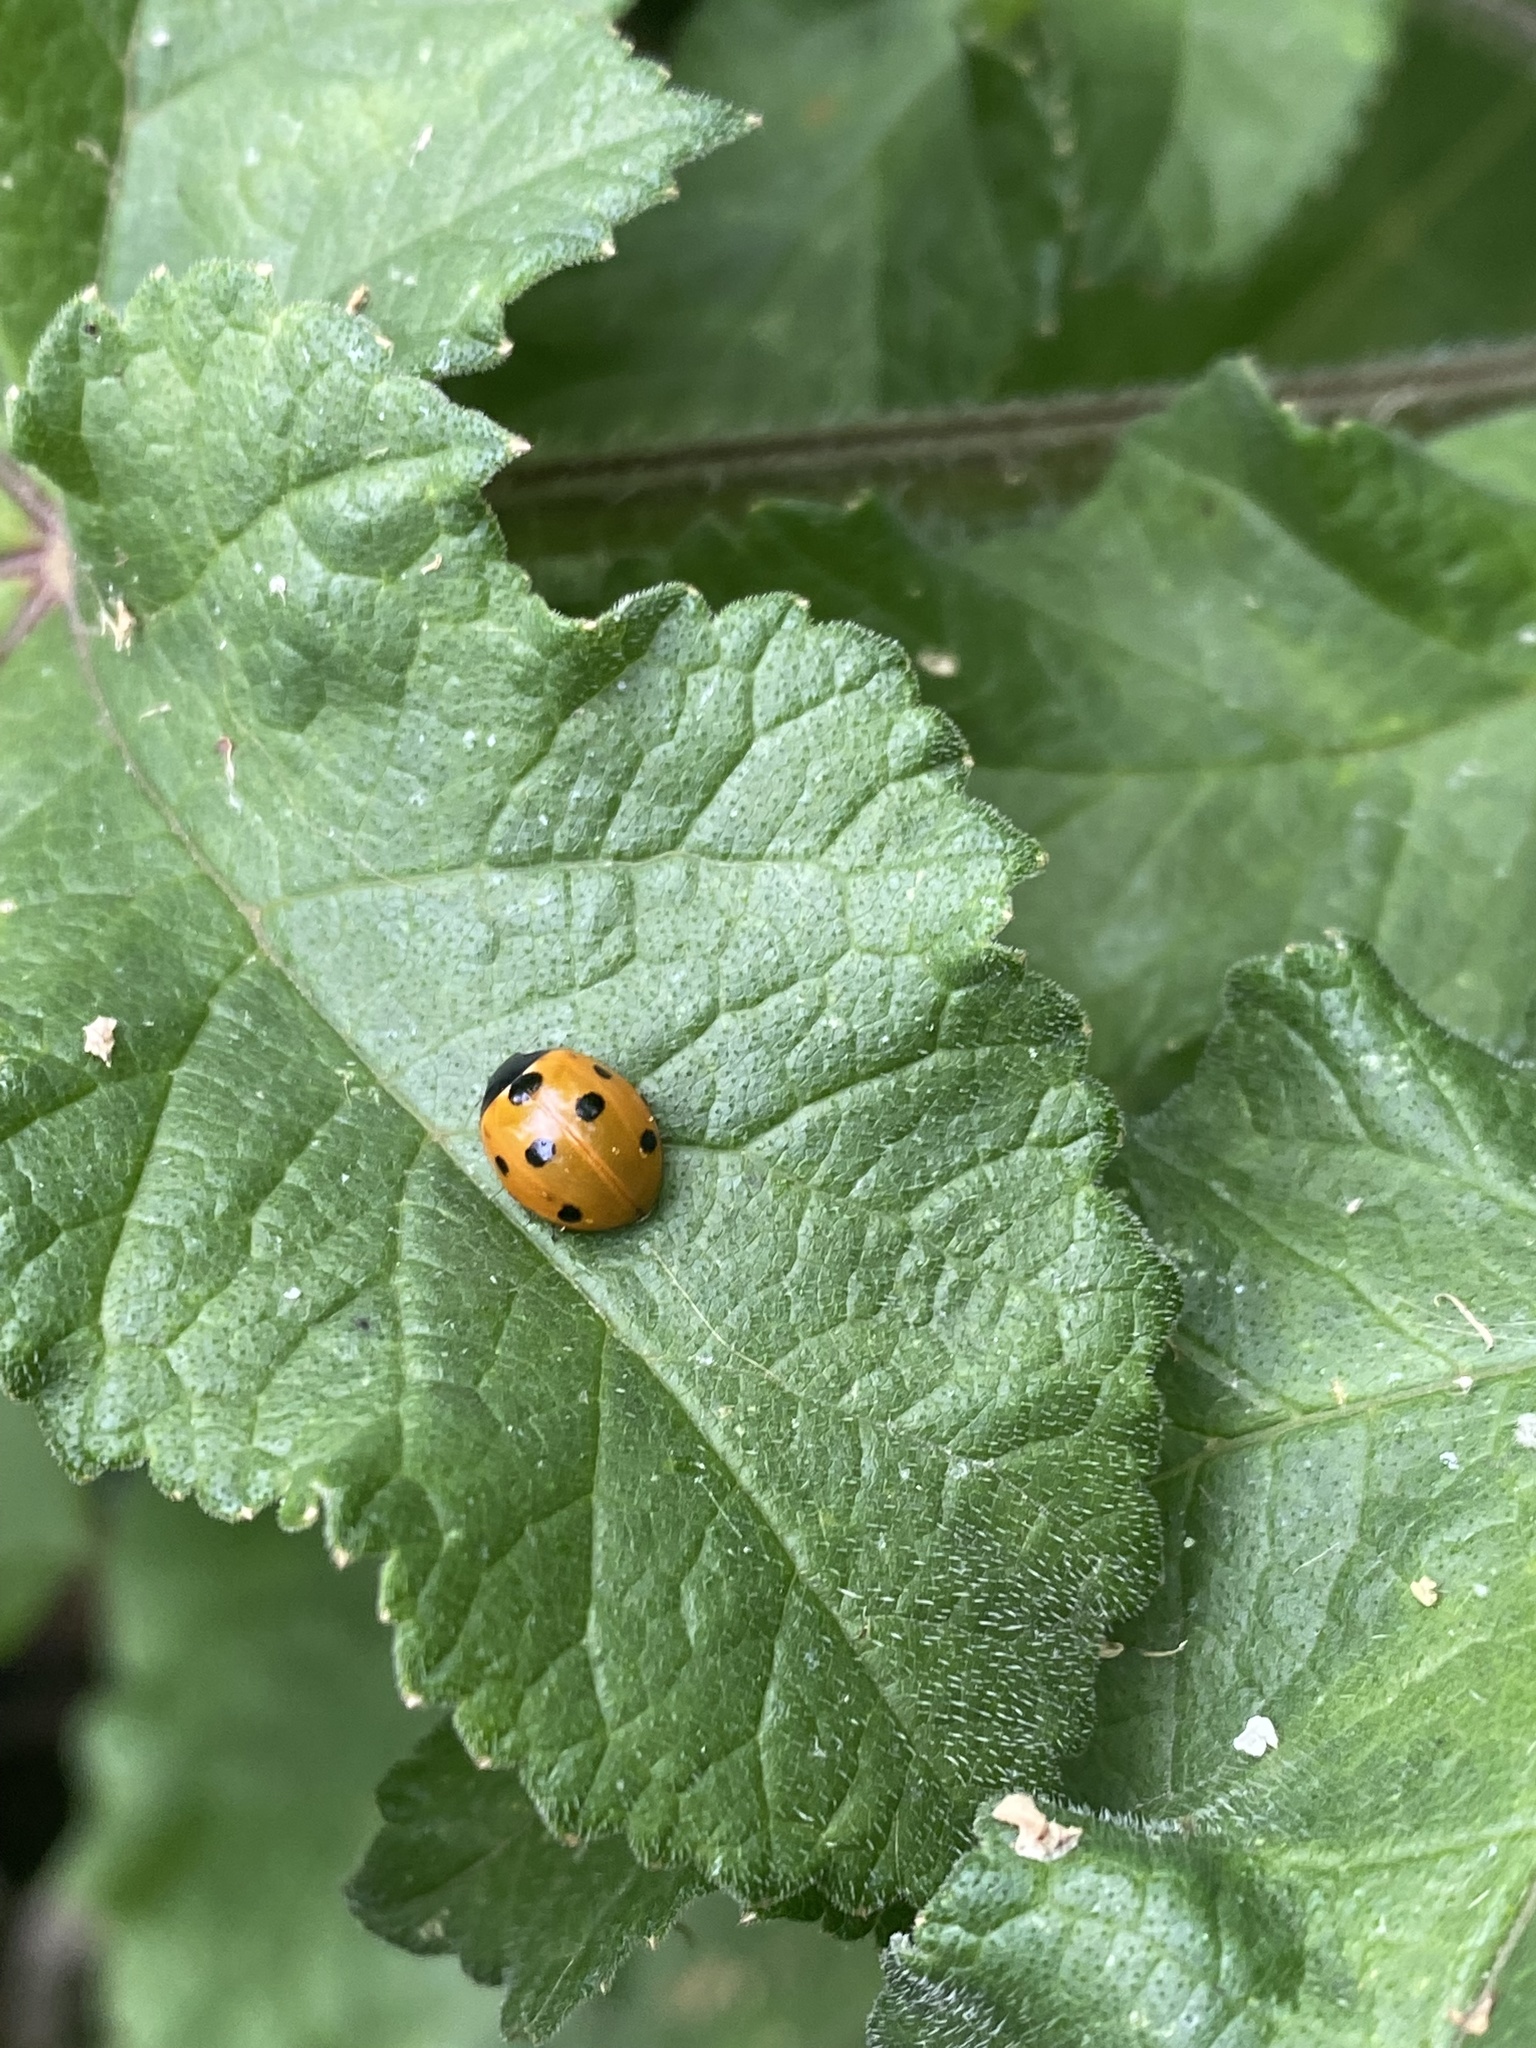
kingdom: Animalia
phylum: Arthropoda
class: Insecta
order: Coleoptera
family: Coccinellidae
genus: Coccinella
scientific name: Coccinella septempunctata
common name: Sevenspotted lady beetle
